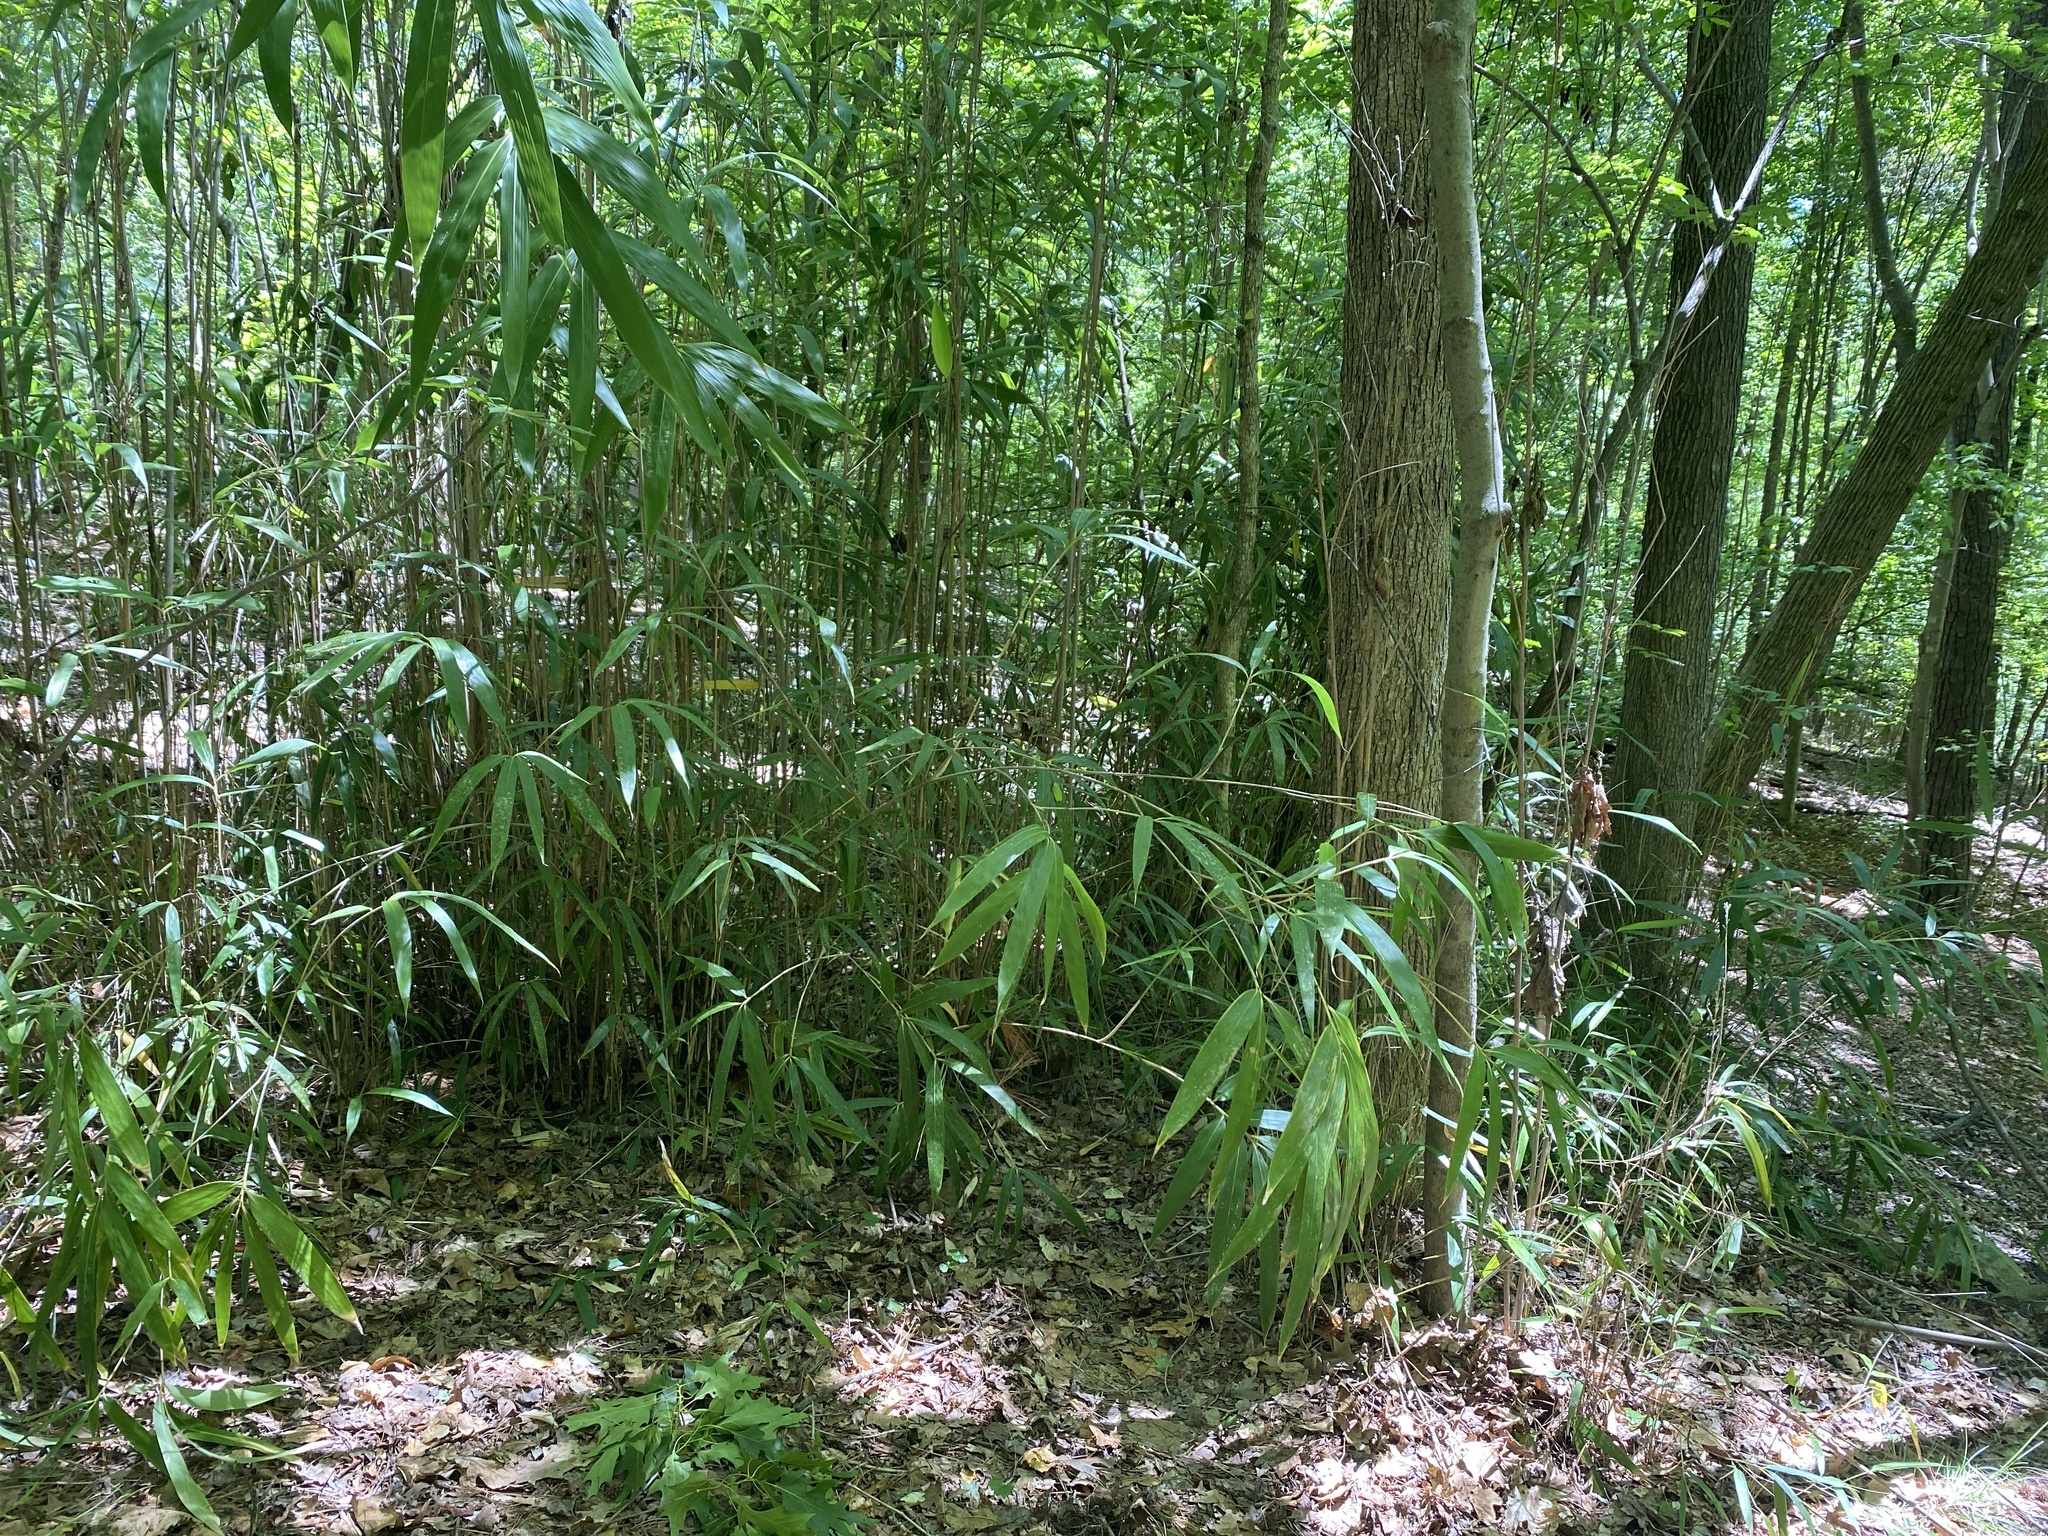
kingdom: Plantae
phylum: Tracheophyta
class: Liliopsida
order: Poales
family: Poaceae
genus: Pseudosasa
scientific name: Pseudosasa japonica
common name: Arrow bamboo
